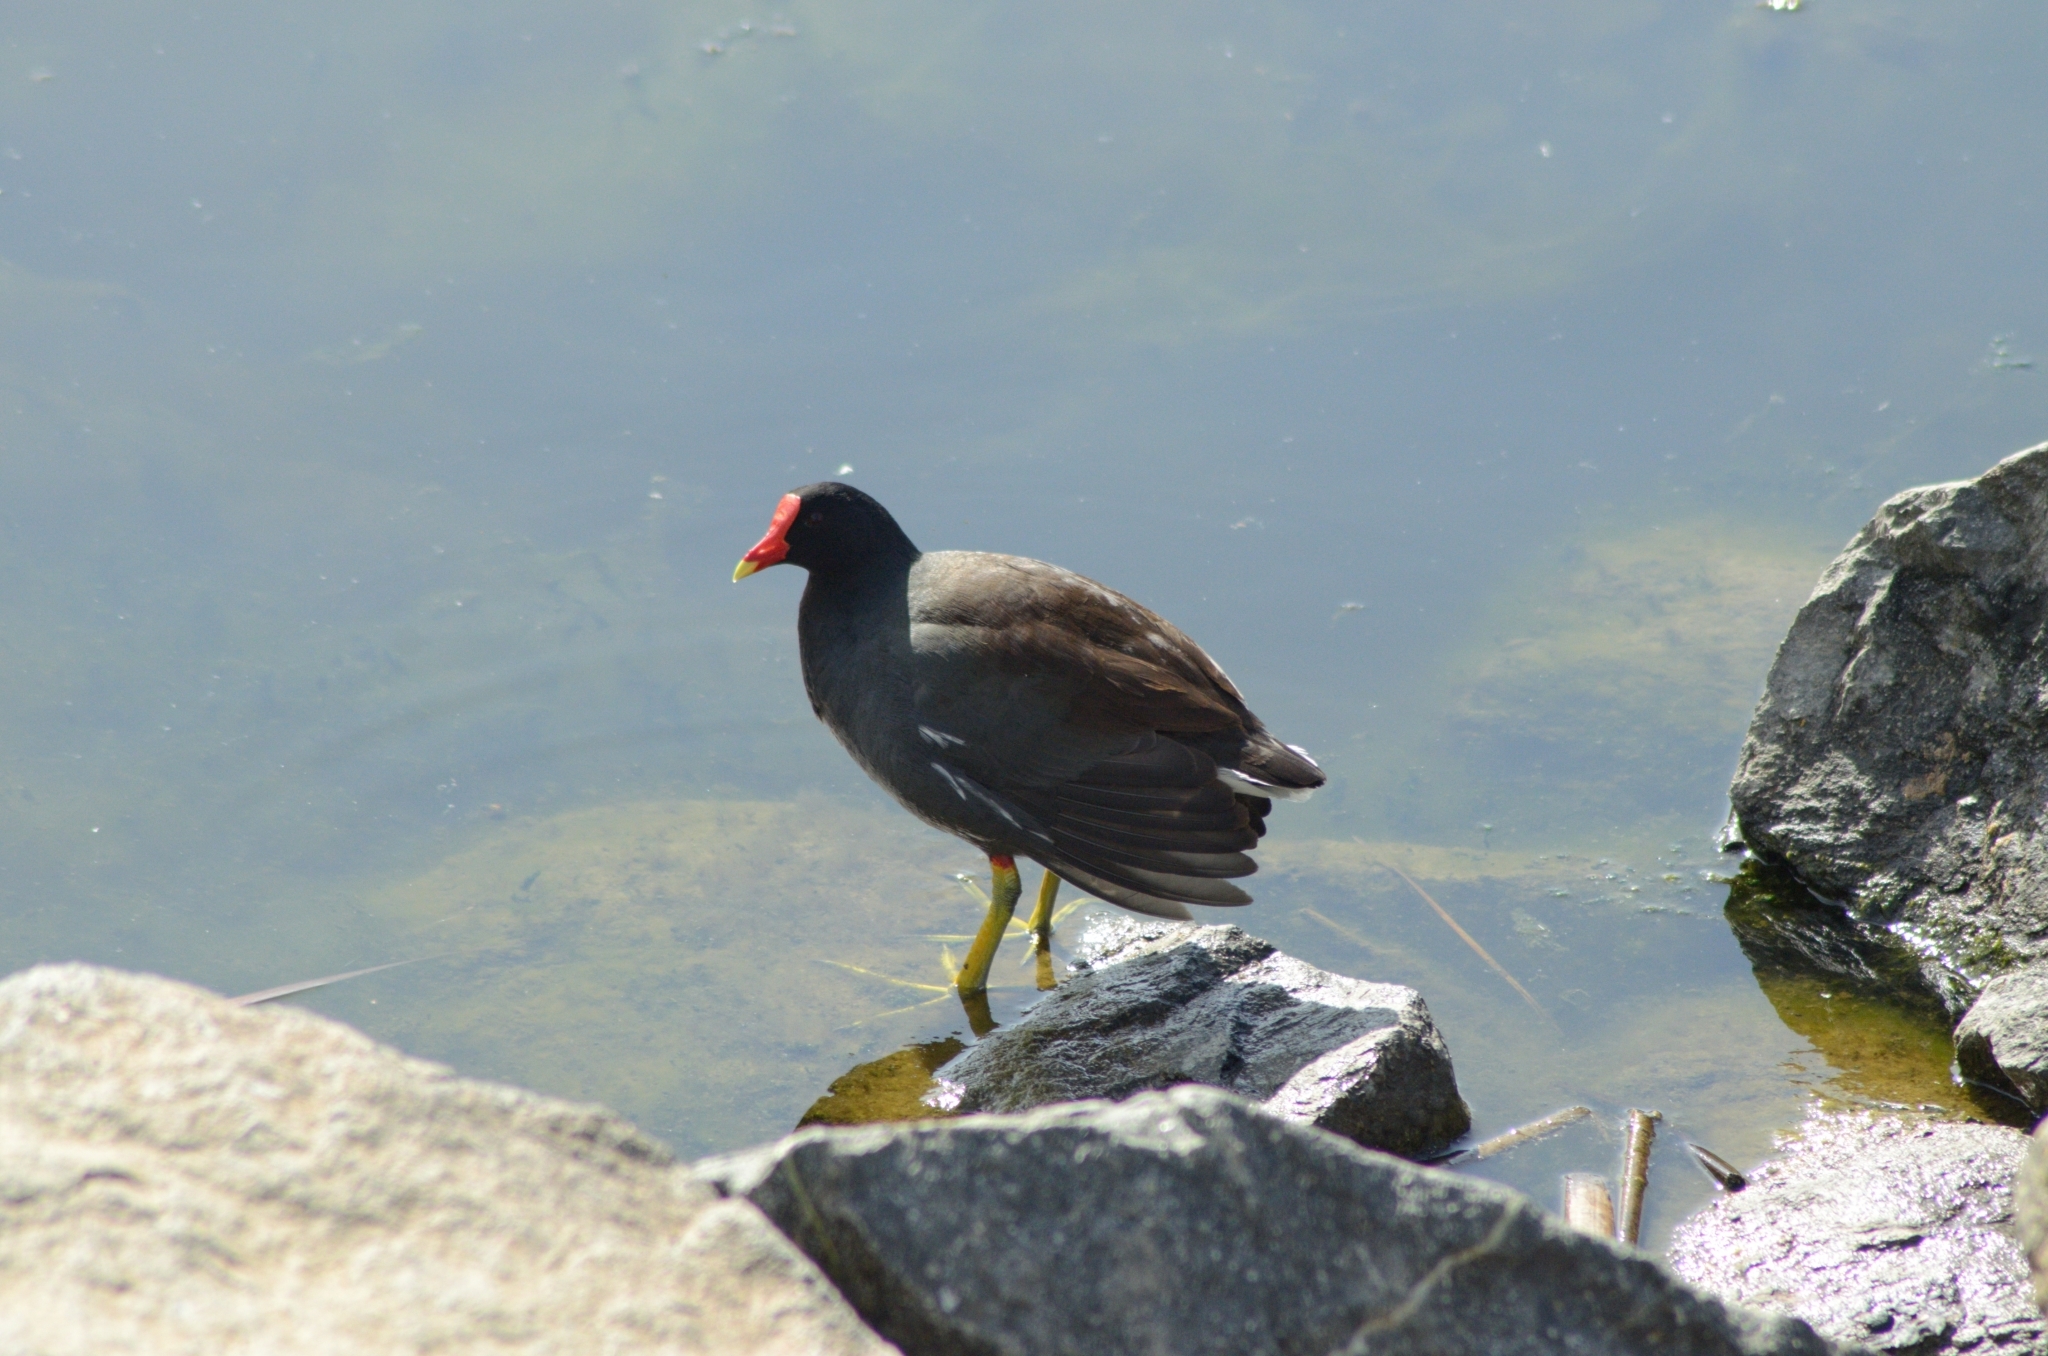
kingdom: Animalia
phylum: Chordata
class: Aves
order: Gruiformes
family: Rallidae
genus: Gallinula
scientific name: Gallinula chloropus
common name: Common moorhen
